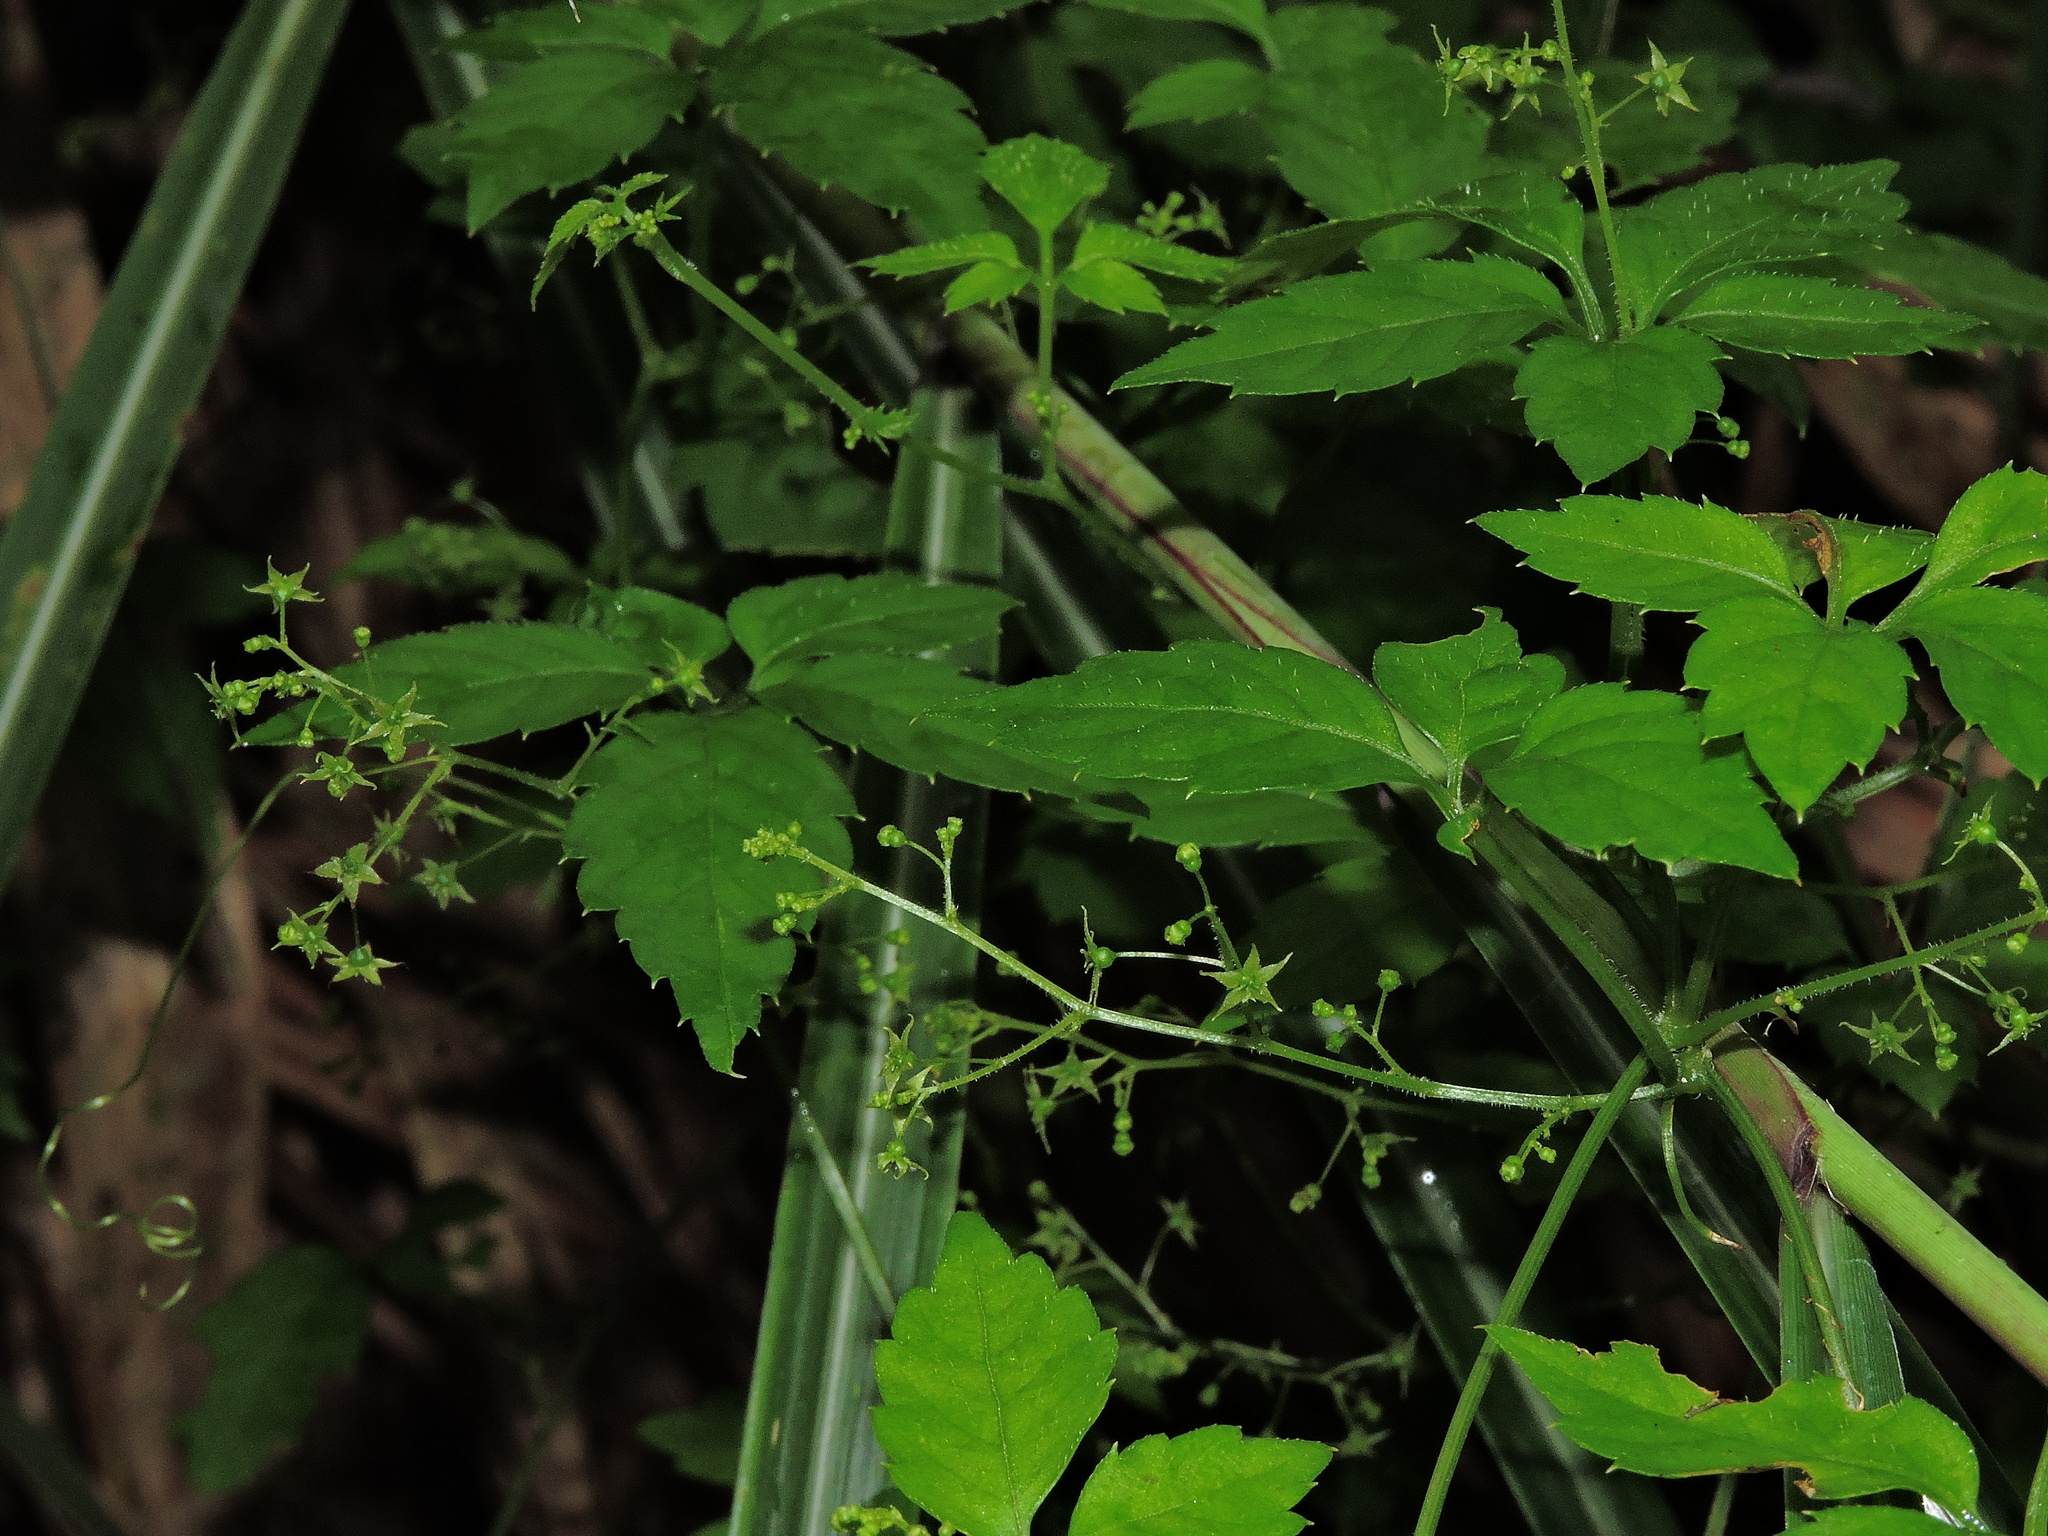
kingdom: Plantae
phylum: Tracheophyta
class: Magnoliopsida
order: Cucurbitales
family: Cucurbitaceae
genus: Gynostemma
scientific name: Gynostemma pentaphyllum
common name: Gynostemma
